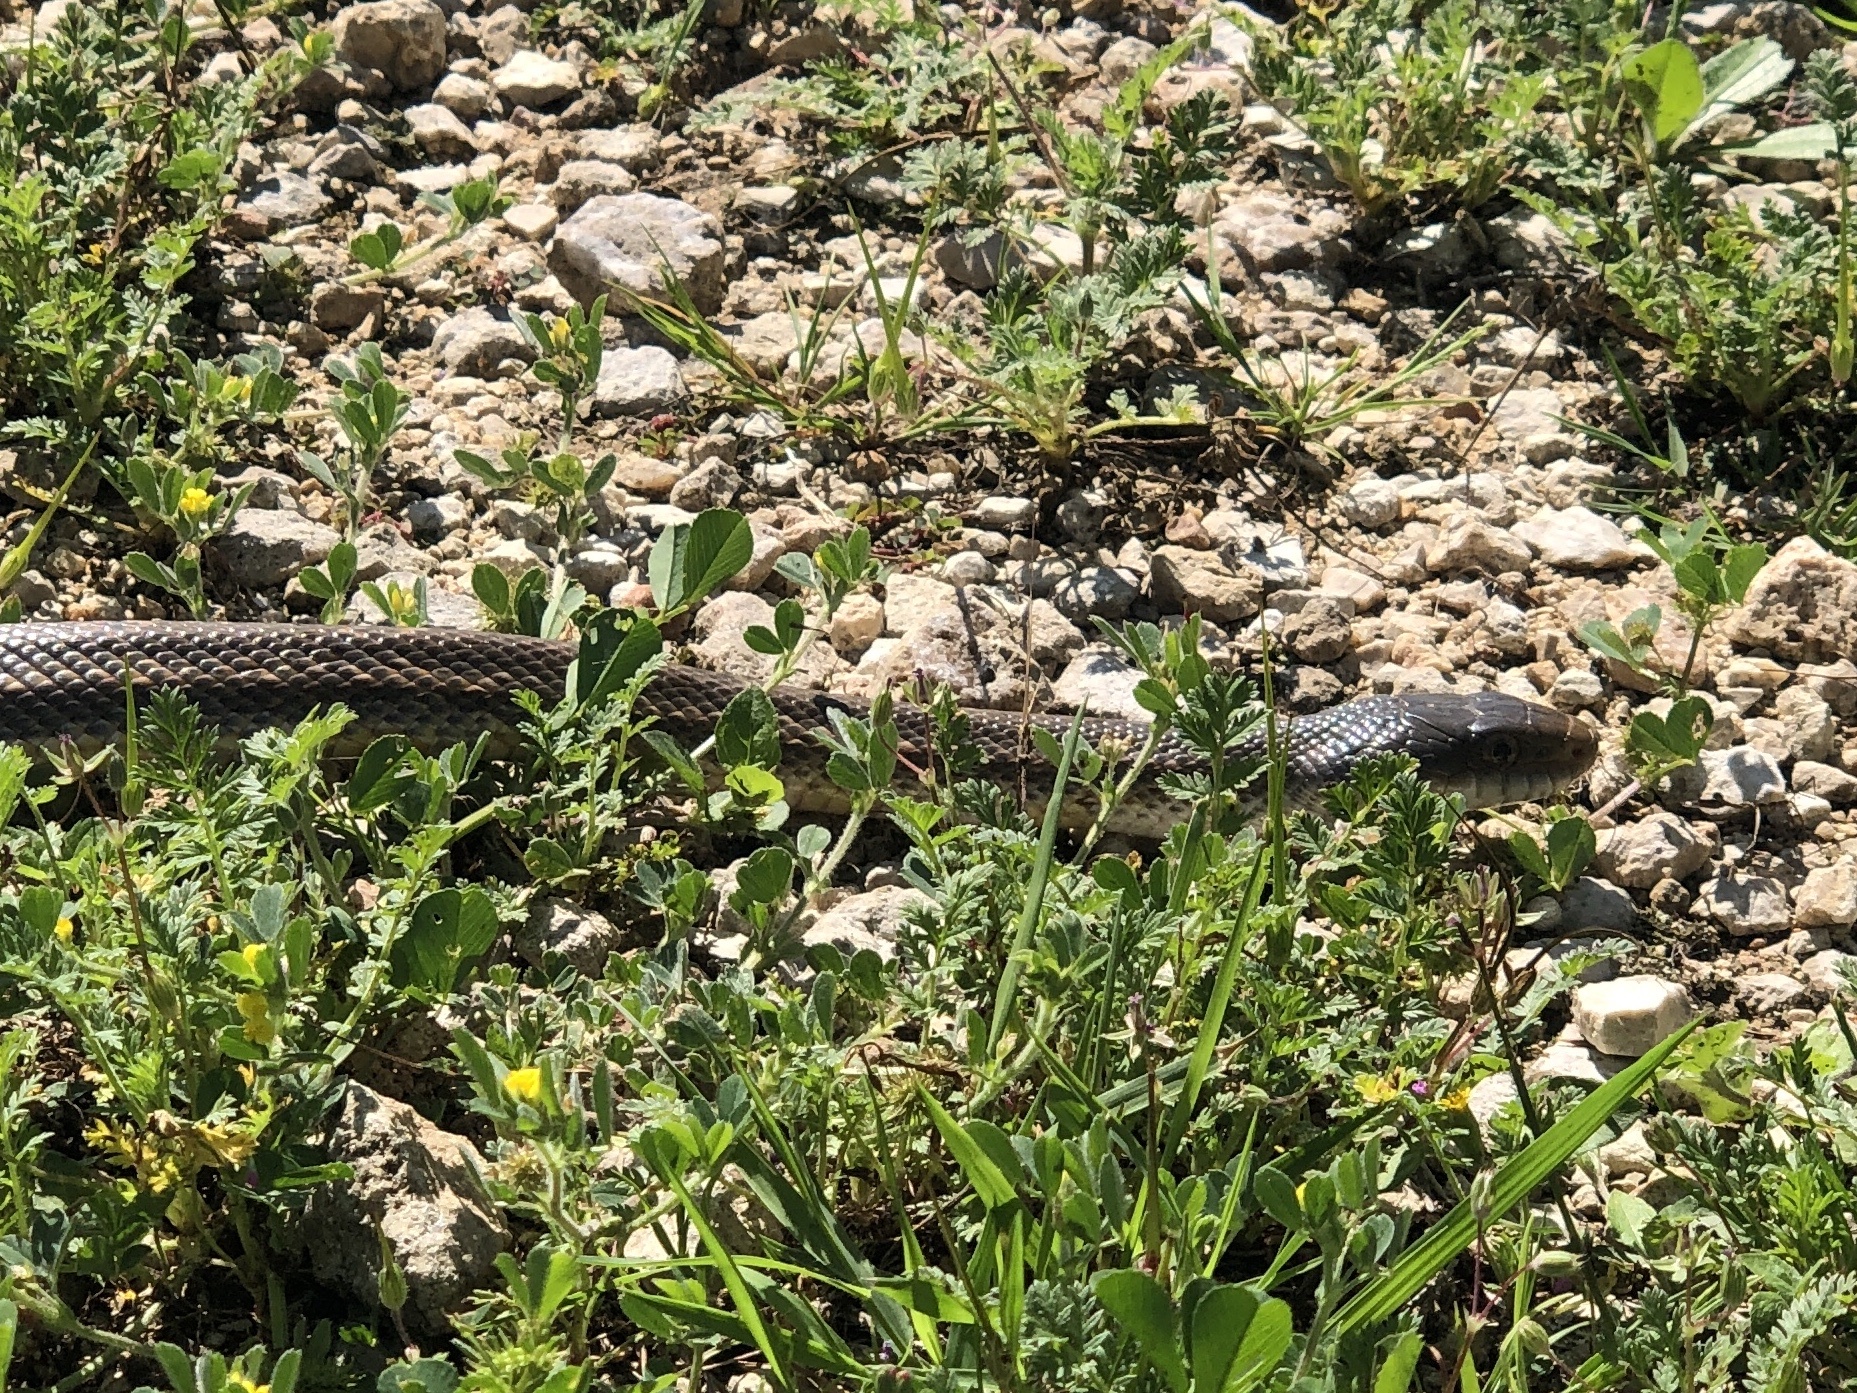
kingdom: Animalia
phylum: Chordata
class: Squamata
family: Colubridae
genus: Pantherophis
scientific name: Pantherophis obsoletus
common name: Black rat snake
